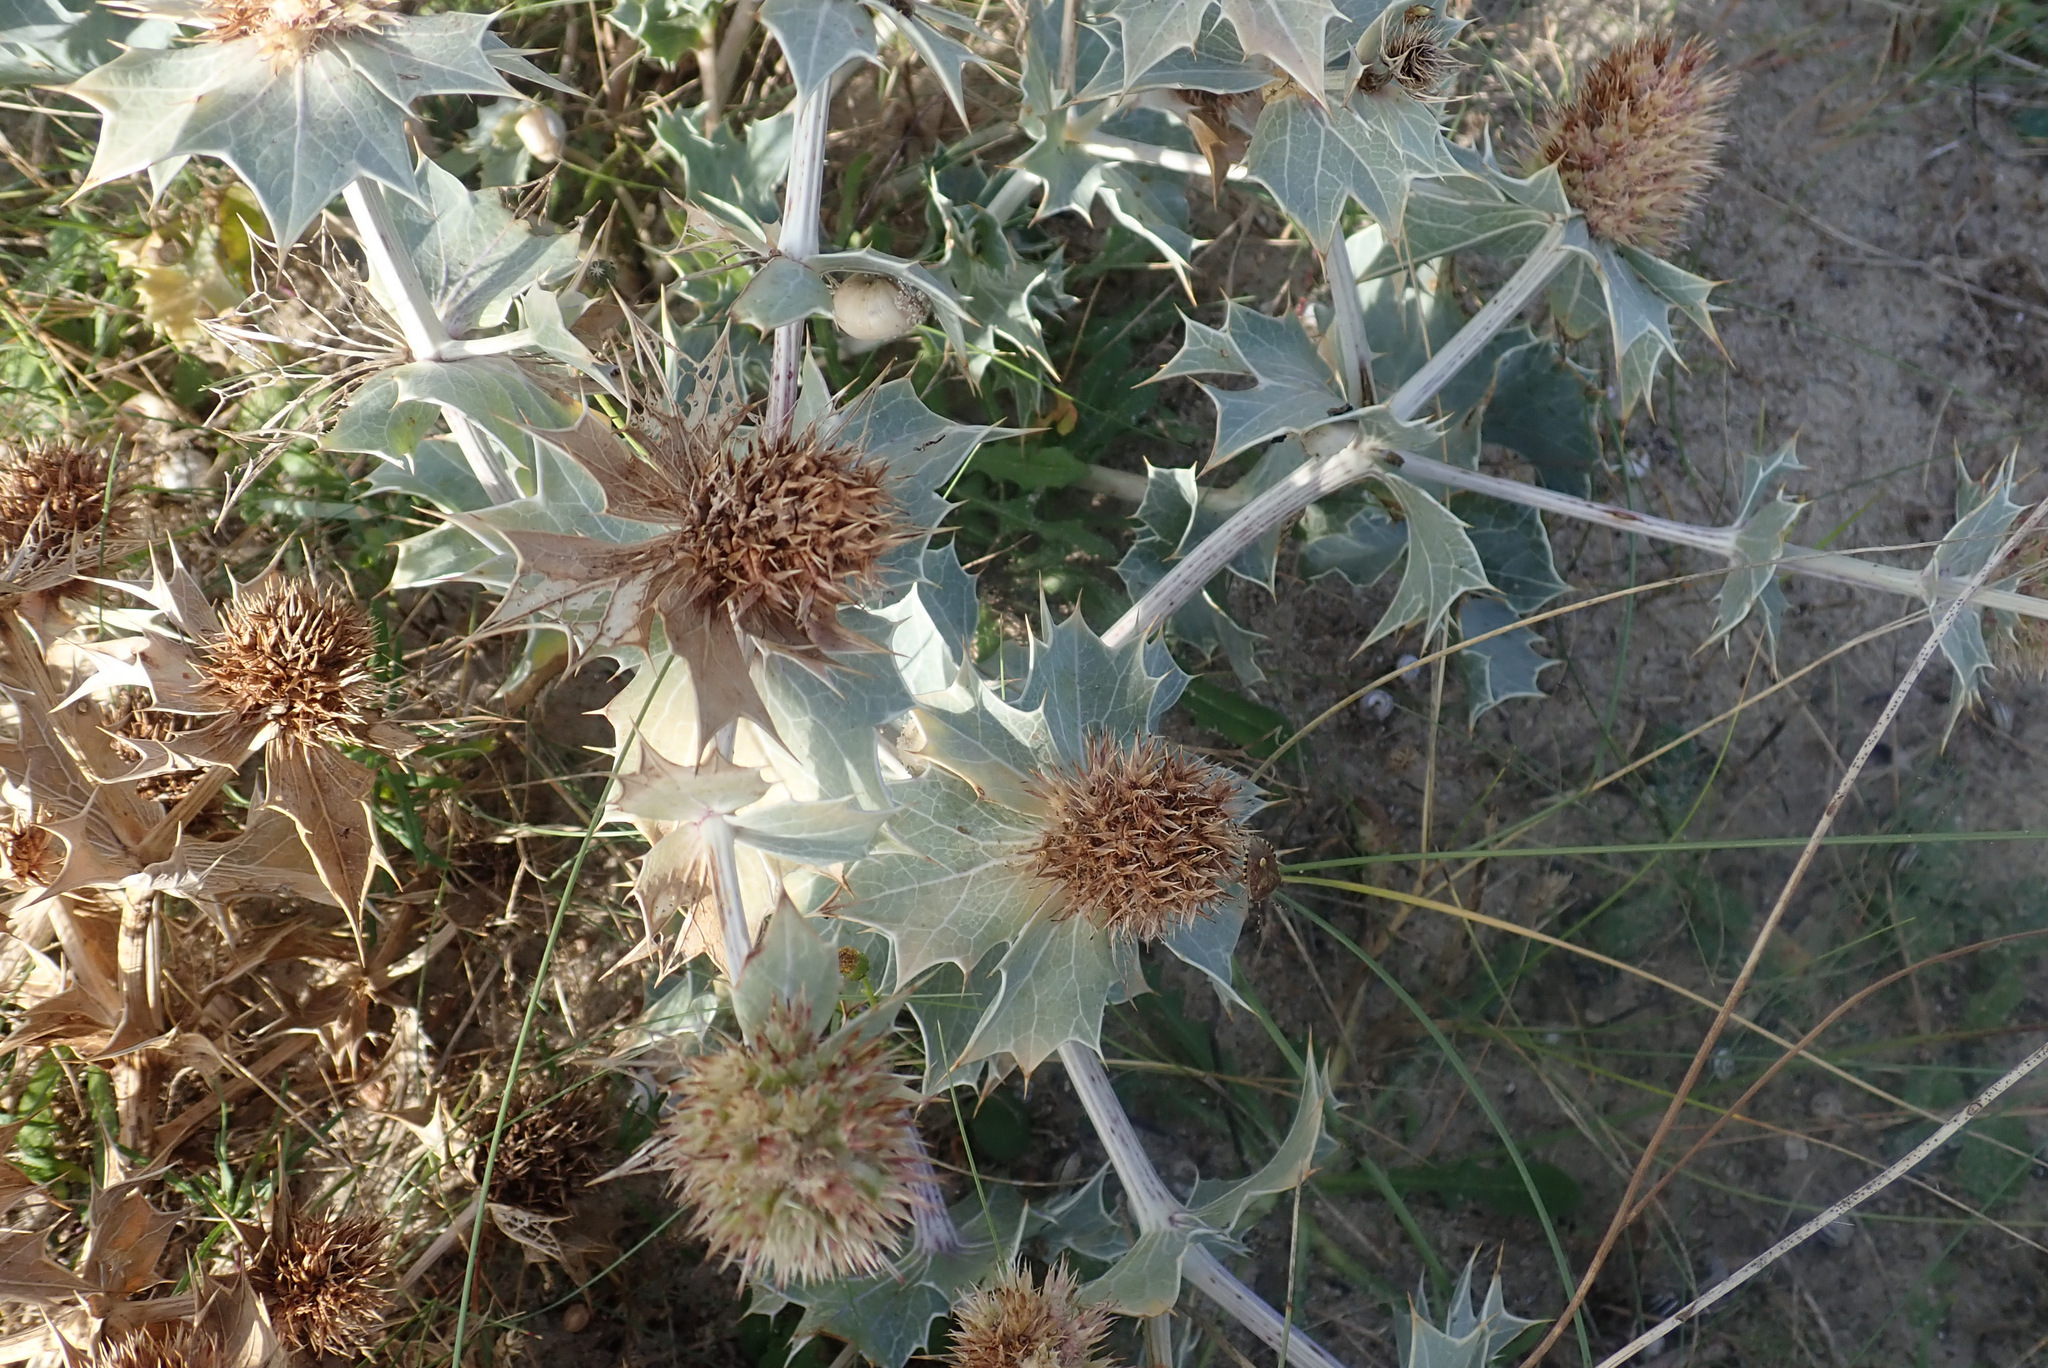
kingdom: Plantae
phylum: Tracheophyta
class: Magnoliopsida
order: Apiales
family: Apiaceae
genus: Eryngium
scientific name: Eryngium maritimum
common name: Sea-holly
